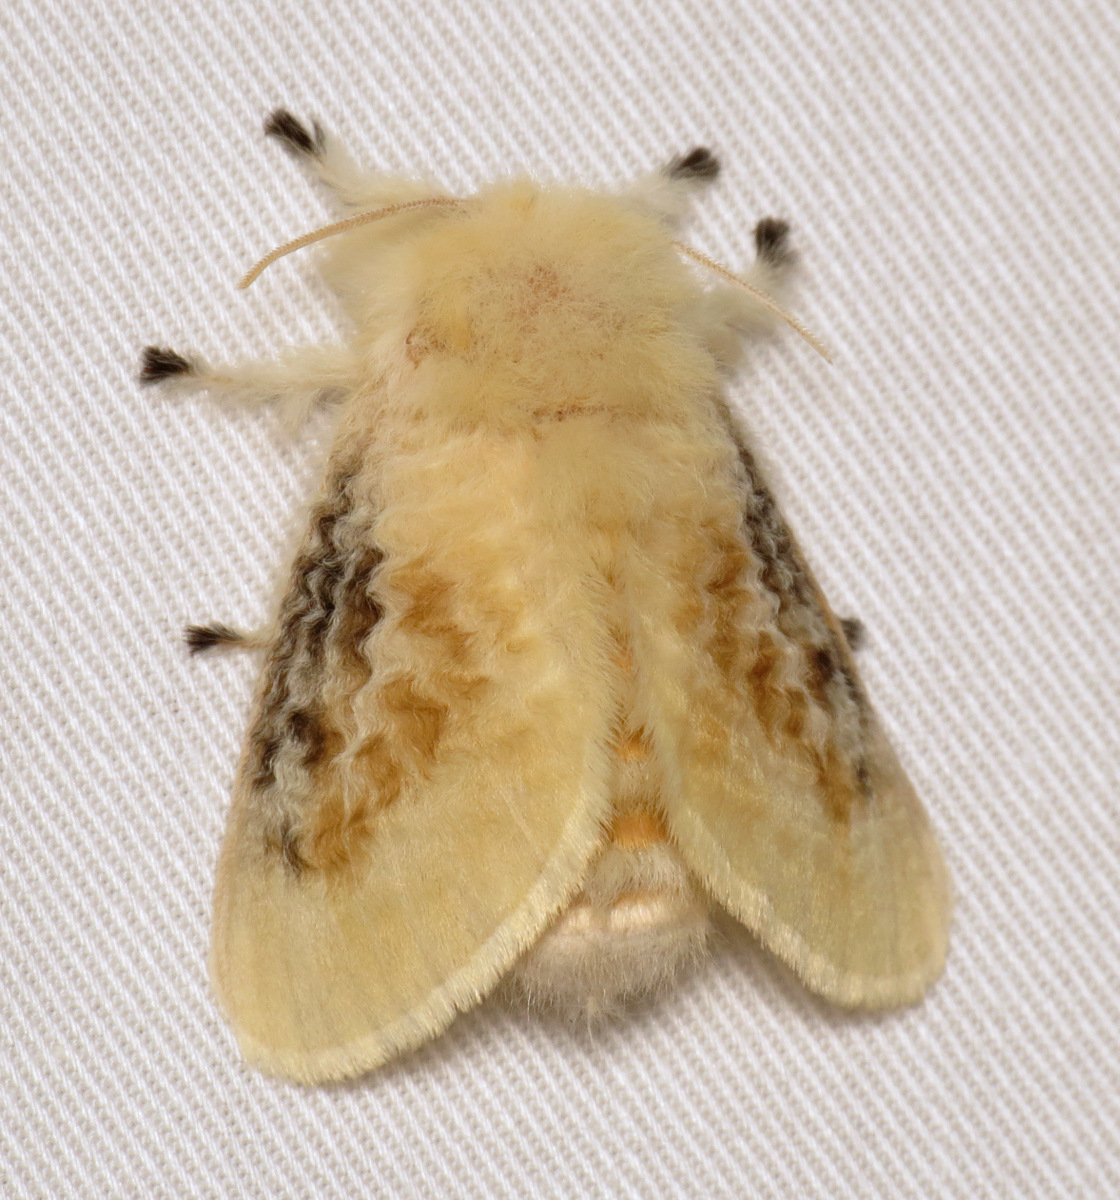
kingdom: Animalia
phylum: Arthropoda
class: Insecta
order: Lepidoptera
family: Megalopygidae
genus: Megalopyge
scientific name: Megalopyge crispata
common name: Black-waved flannel moth
